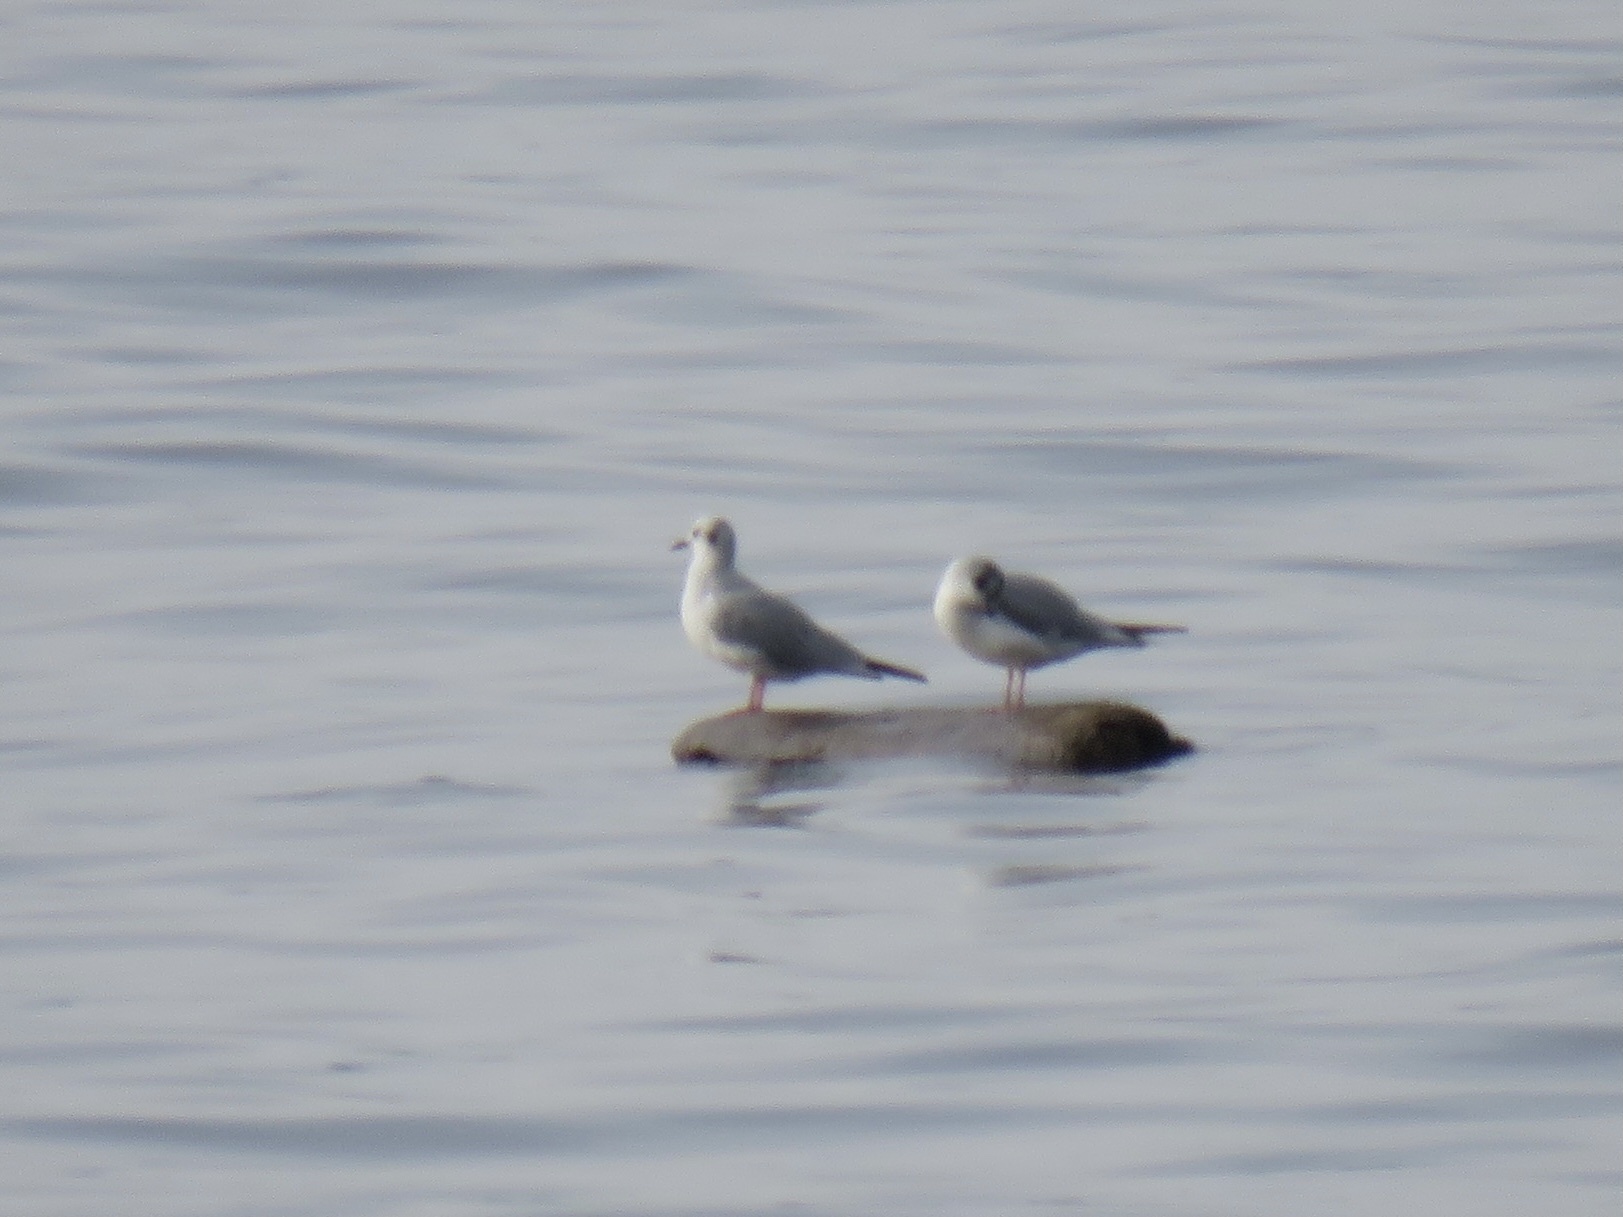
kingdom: Animalia
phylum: Chordata
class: Aves
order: Charadriiformes
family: Laridae
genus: Chroicocephalus
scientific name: Chroicocephalus philadelphia
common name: Bonaparte's gull
